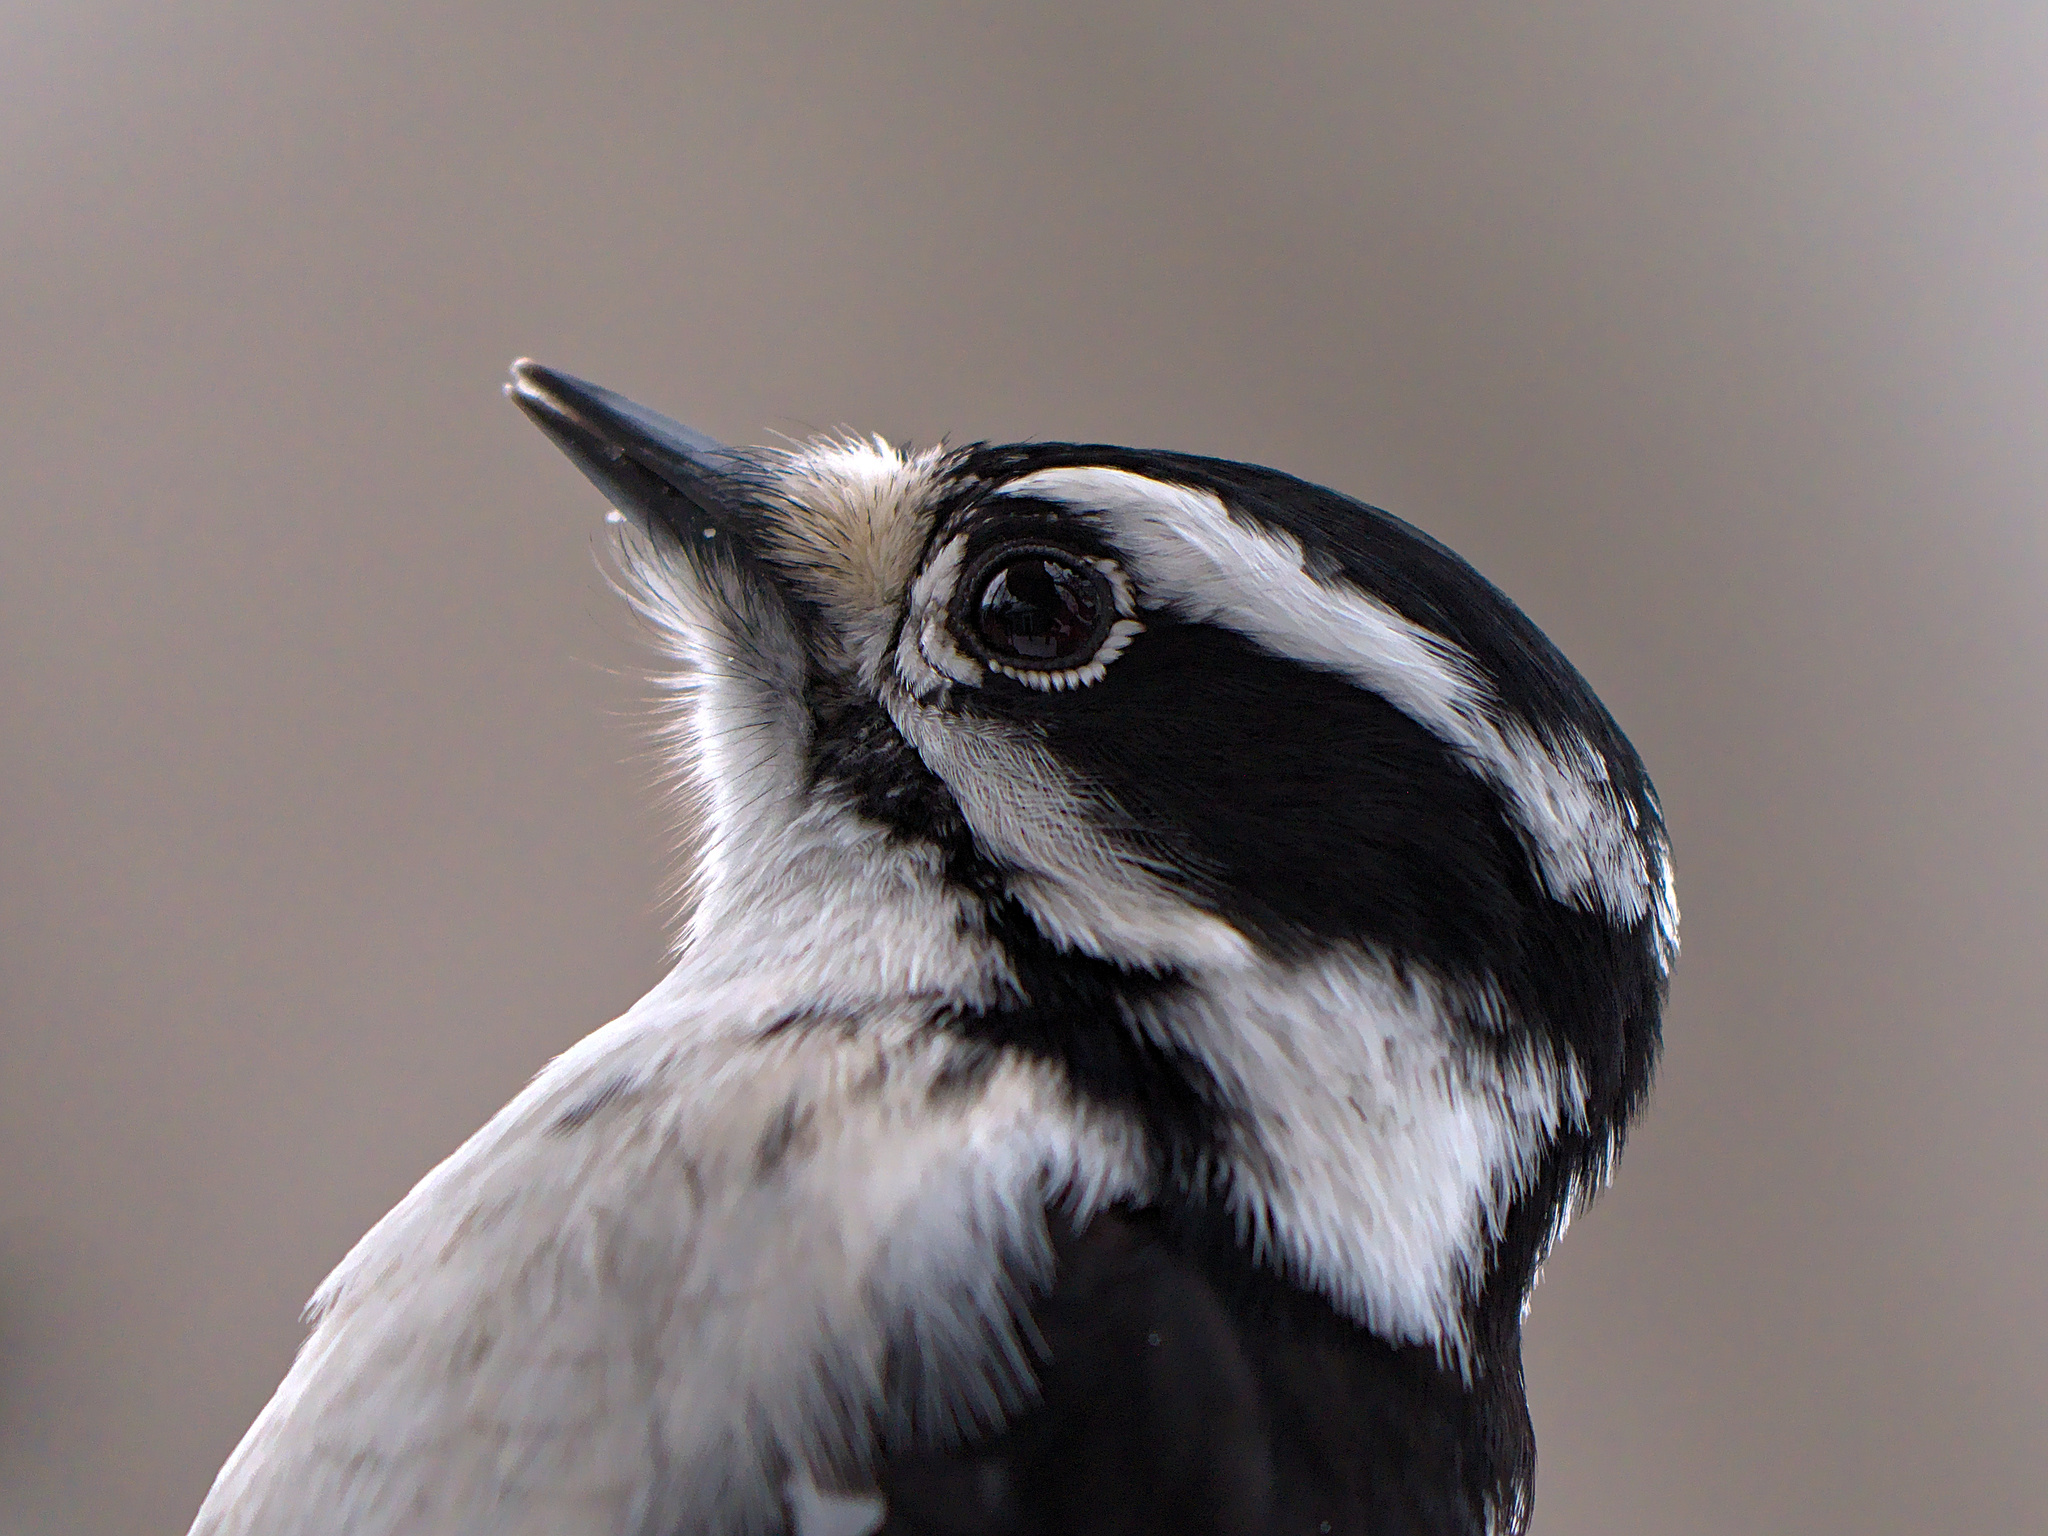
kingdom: Animalia
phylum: Chordata
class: Aves
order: Piciformes
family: Picidae
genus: Dryobates
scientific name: Dryobates pubescens
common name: Downy woodpecker
